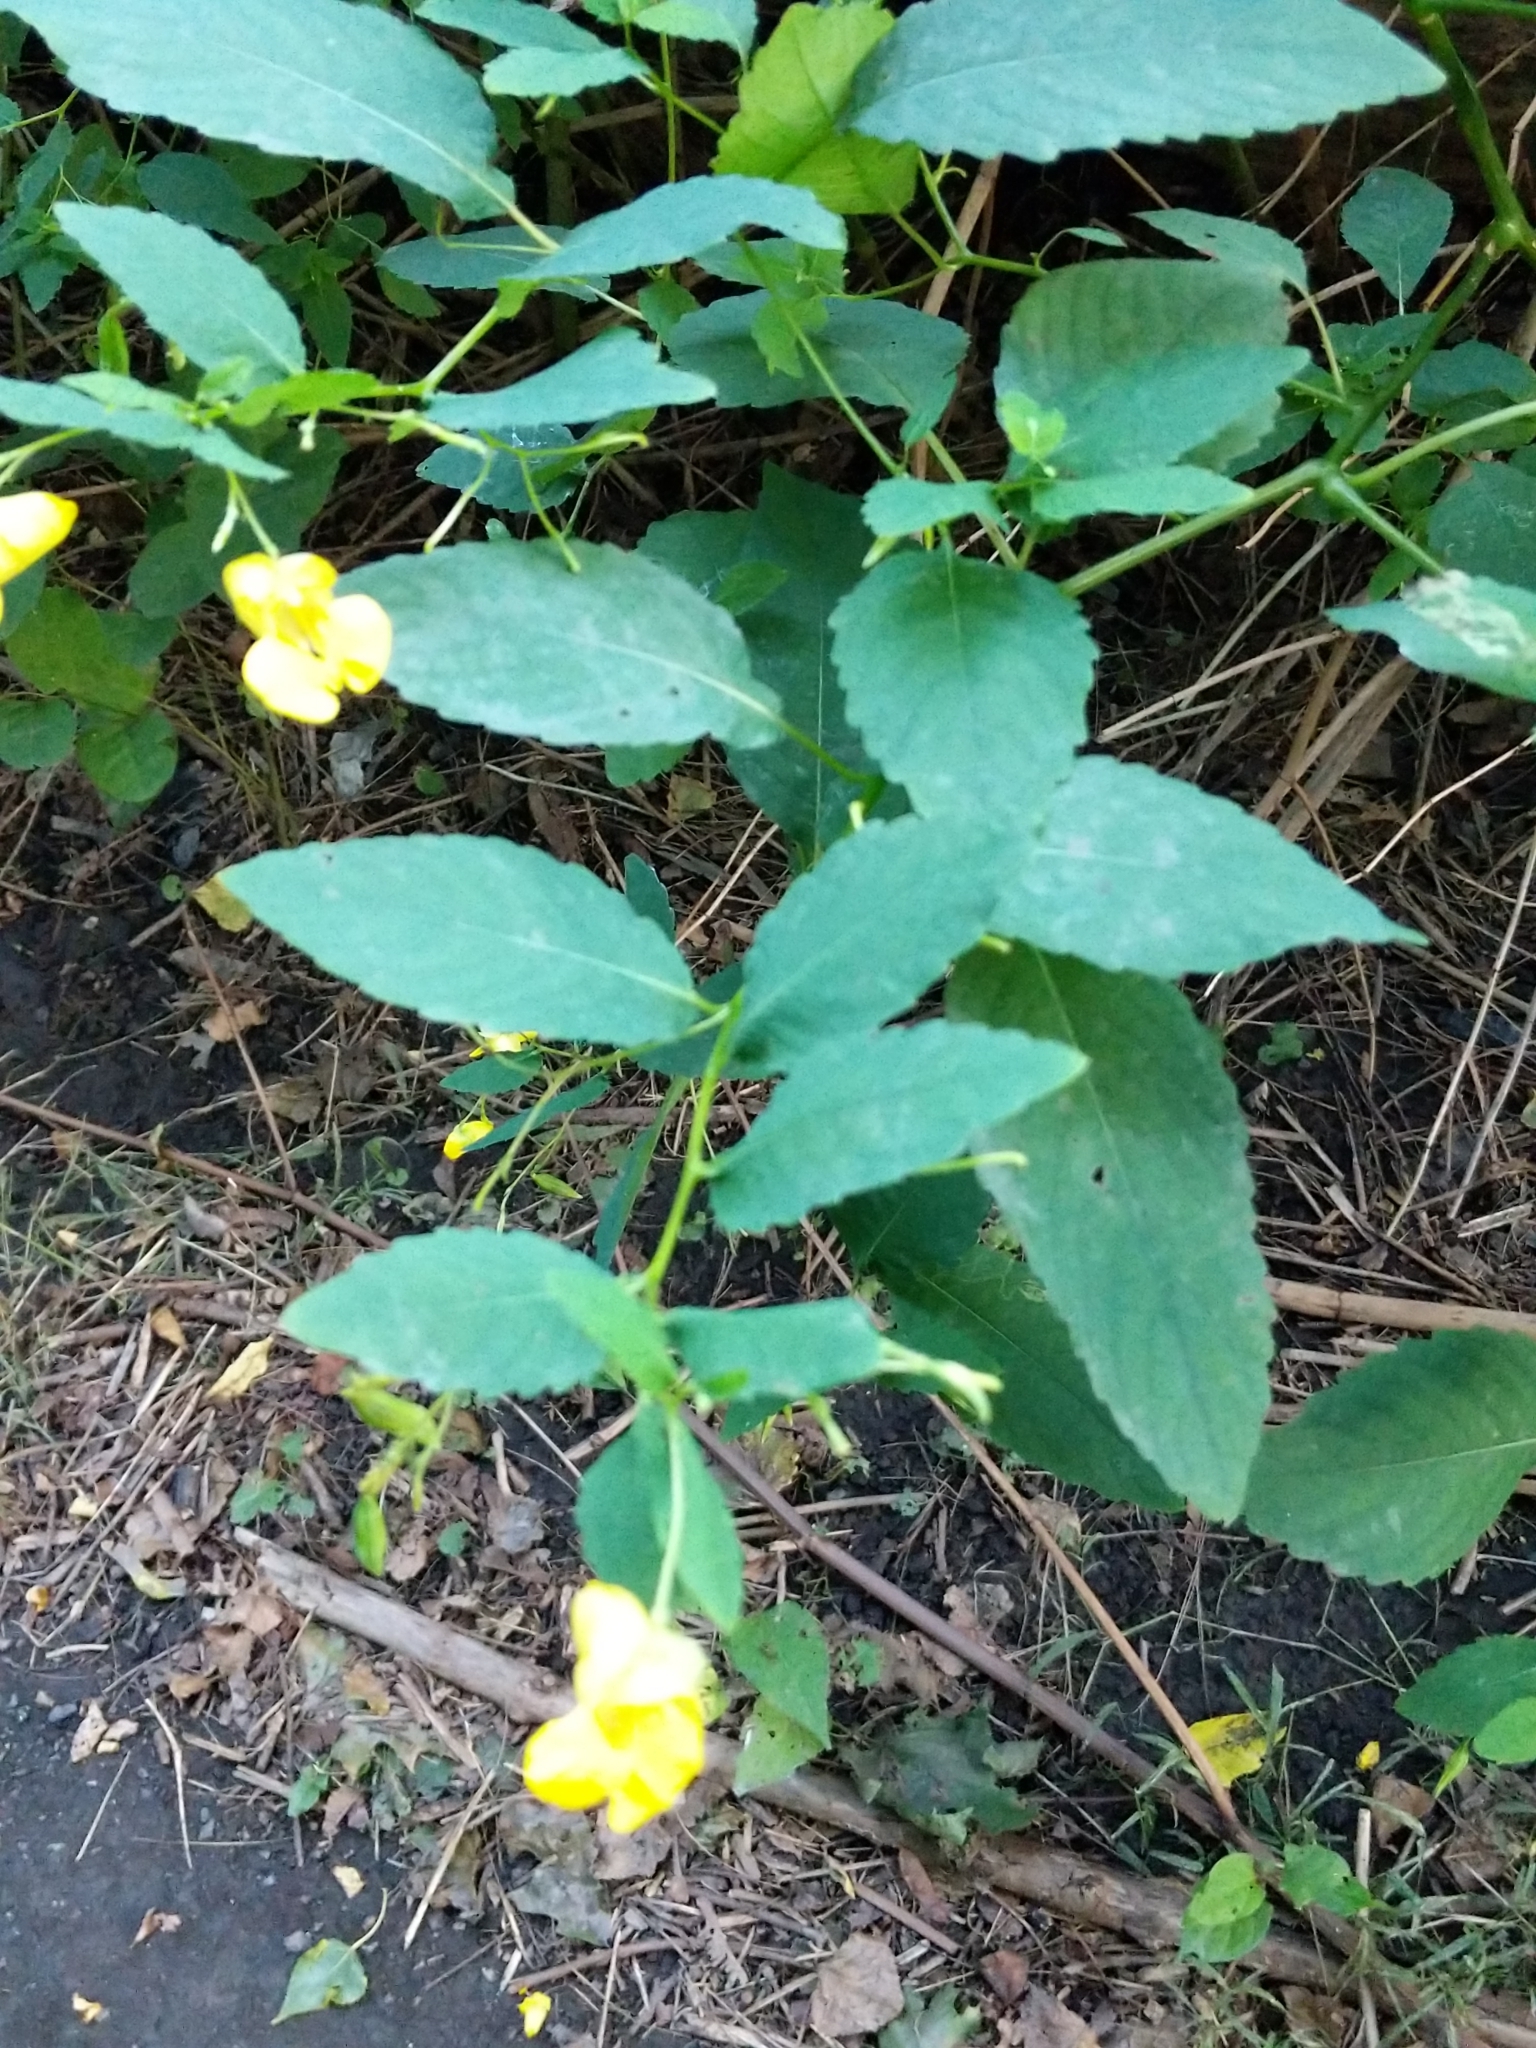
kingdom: Plantae
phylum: Tracheophyta
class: Magnoliopsida
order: Ericales
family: Balsaminaceae
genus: Impatiens
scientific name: Impatiens pallida
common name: Pale snapweed
